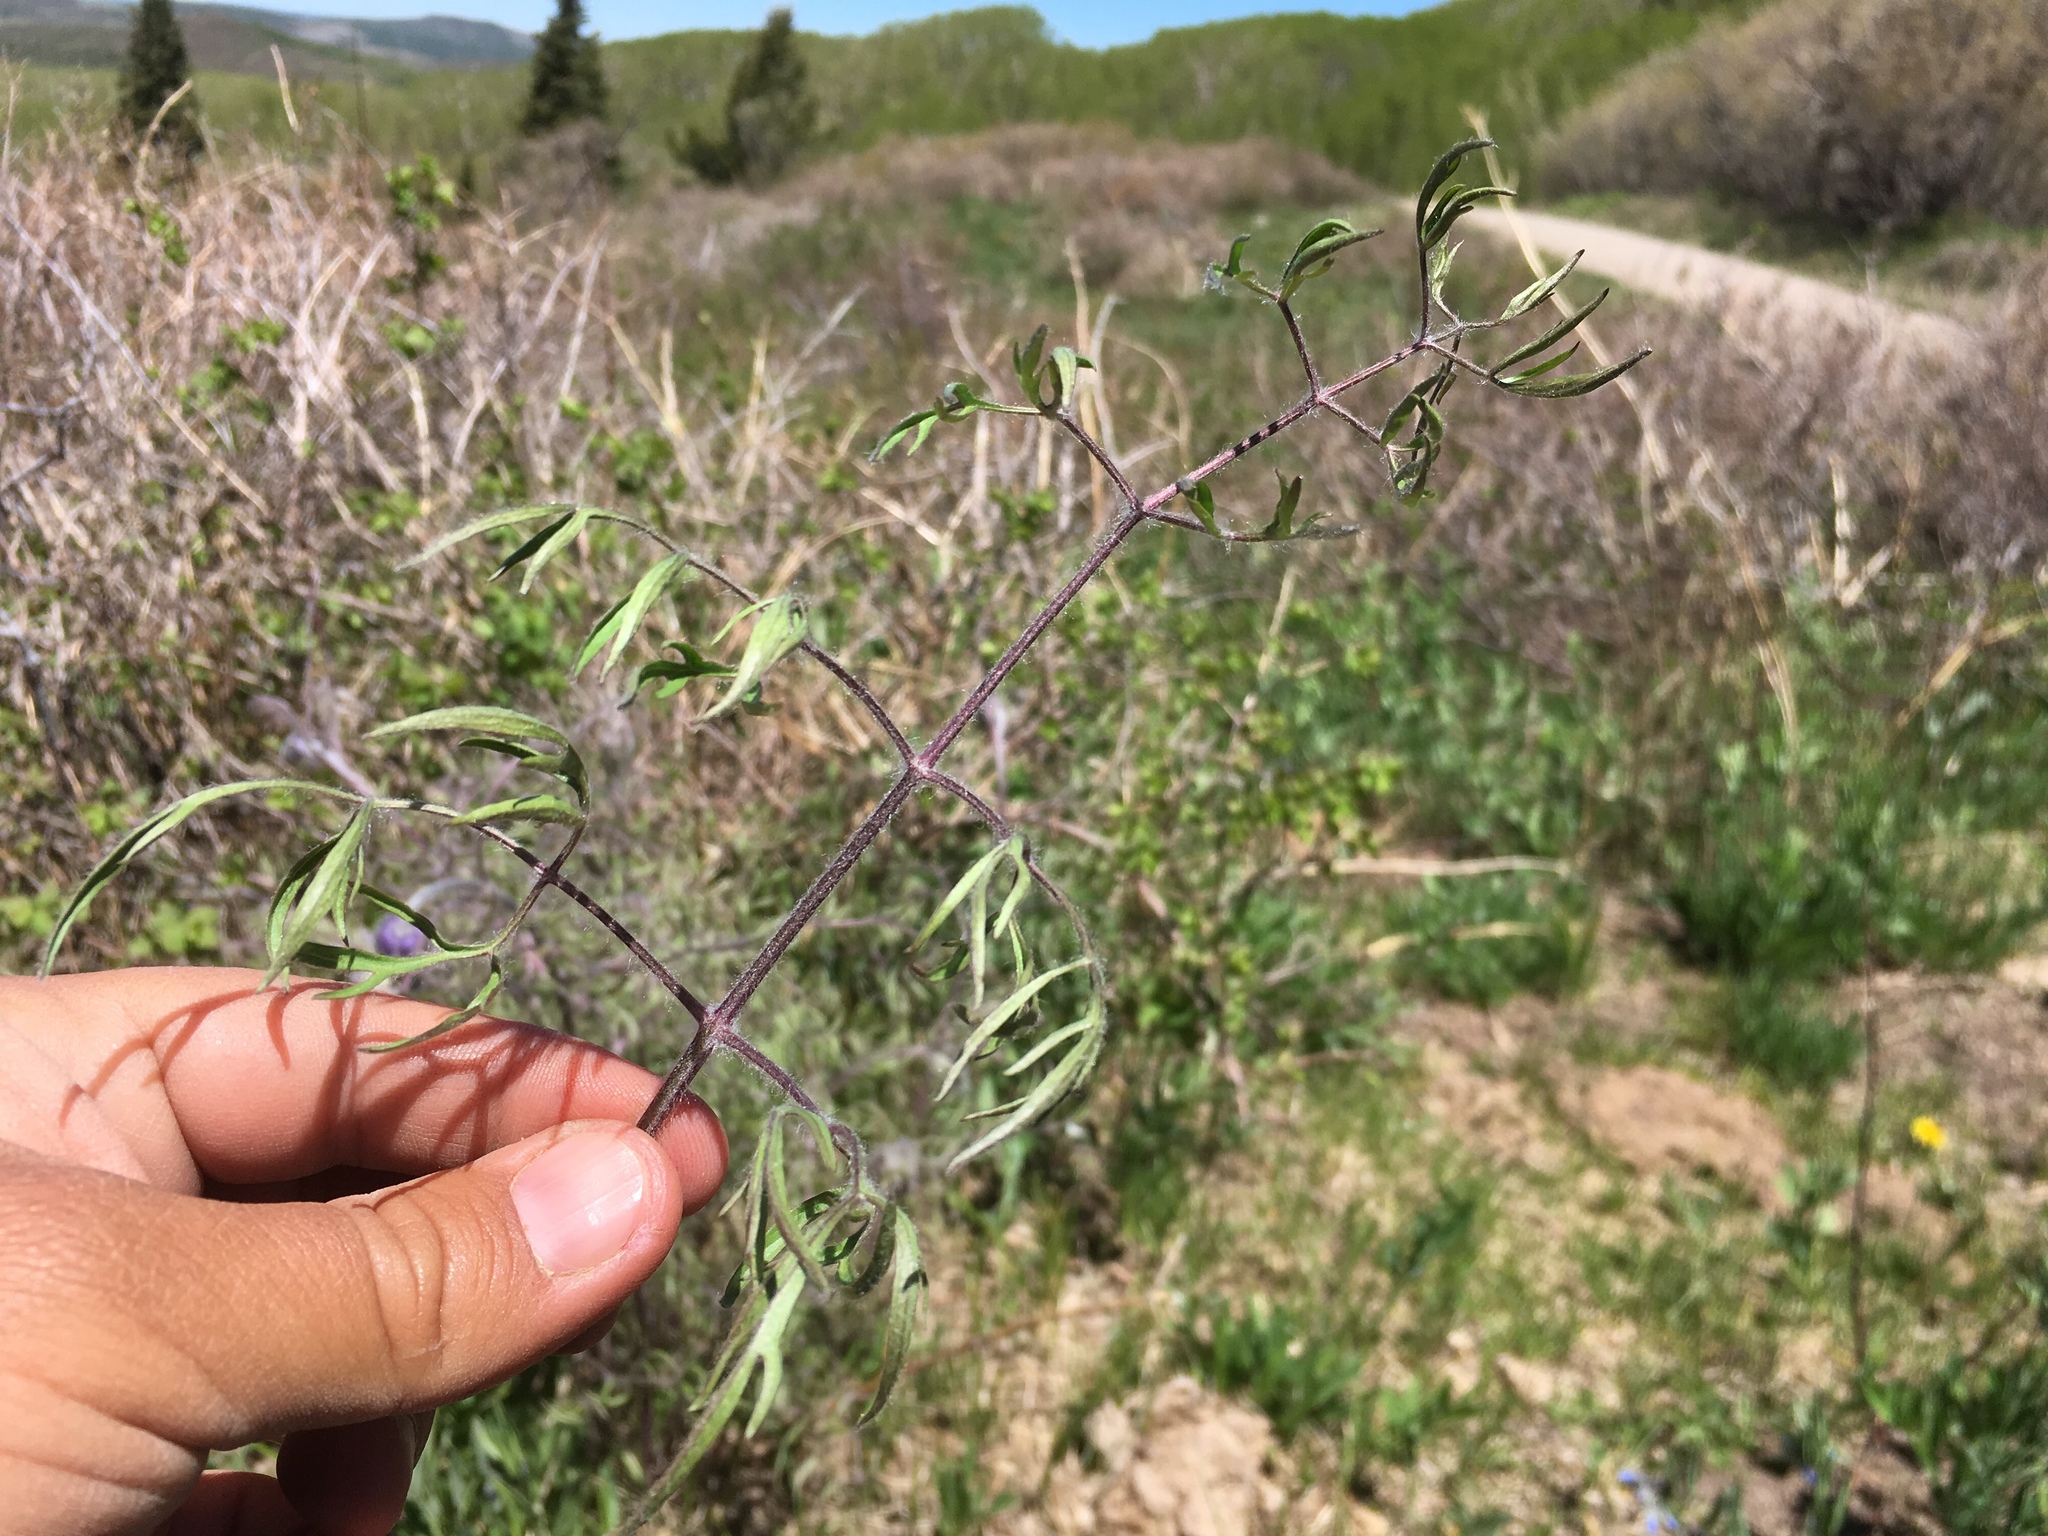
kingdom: Plantae
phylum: Tracheophyta
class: Magnoliopsida
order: Ranunculales
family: Ranunculaceae
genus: Clematis
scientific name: Clematis hirsutissima
